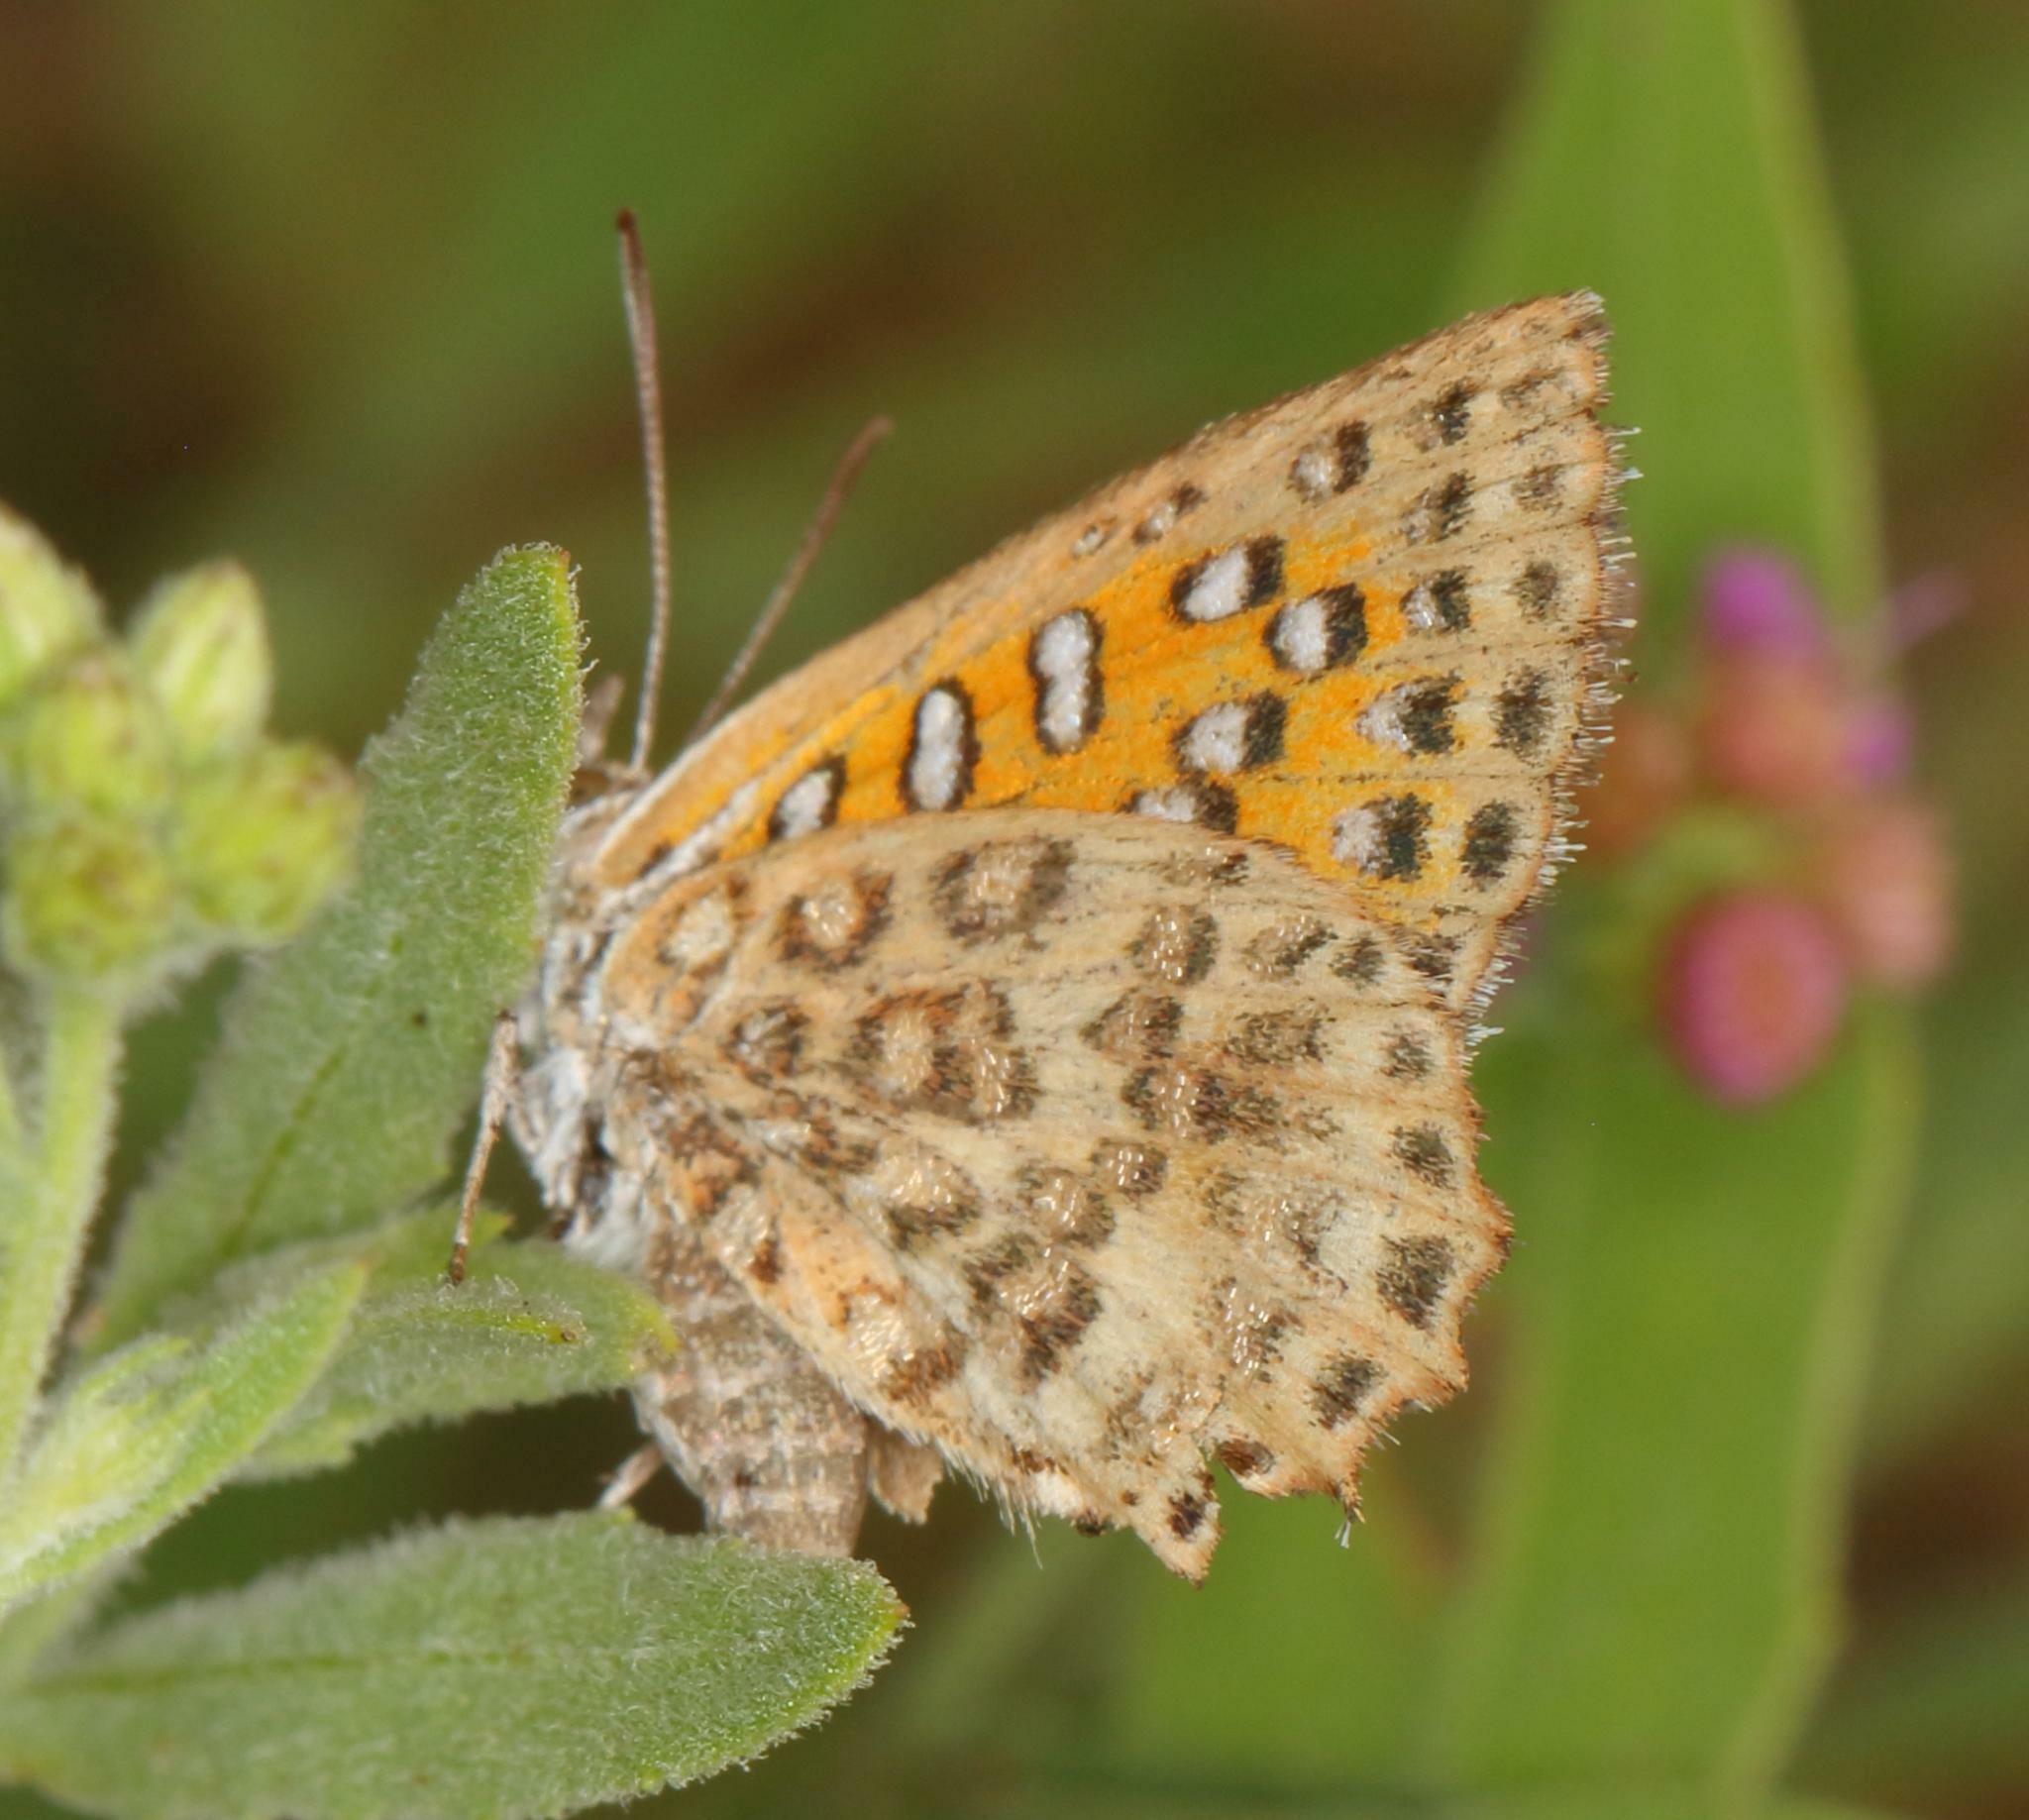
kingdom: Animalia
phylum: Arthropoda
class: Insecta
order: Lepidoptera
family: Lycaenidae
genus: Aloeides
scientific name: Aloeides taikosama
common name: Dusky copper
